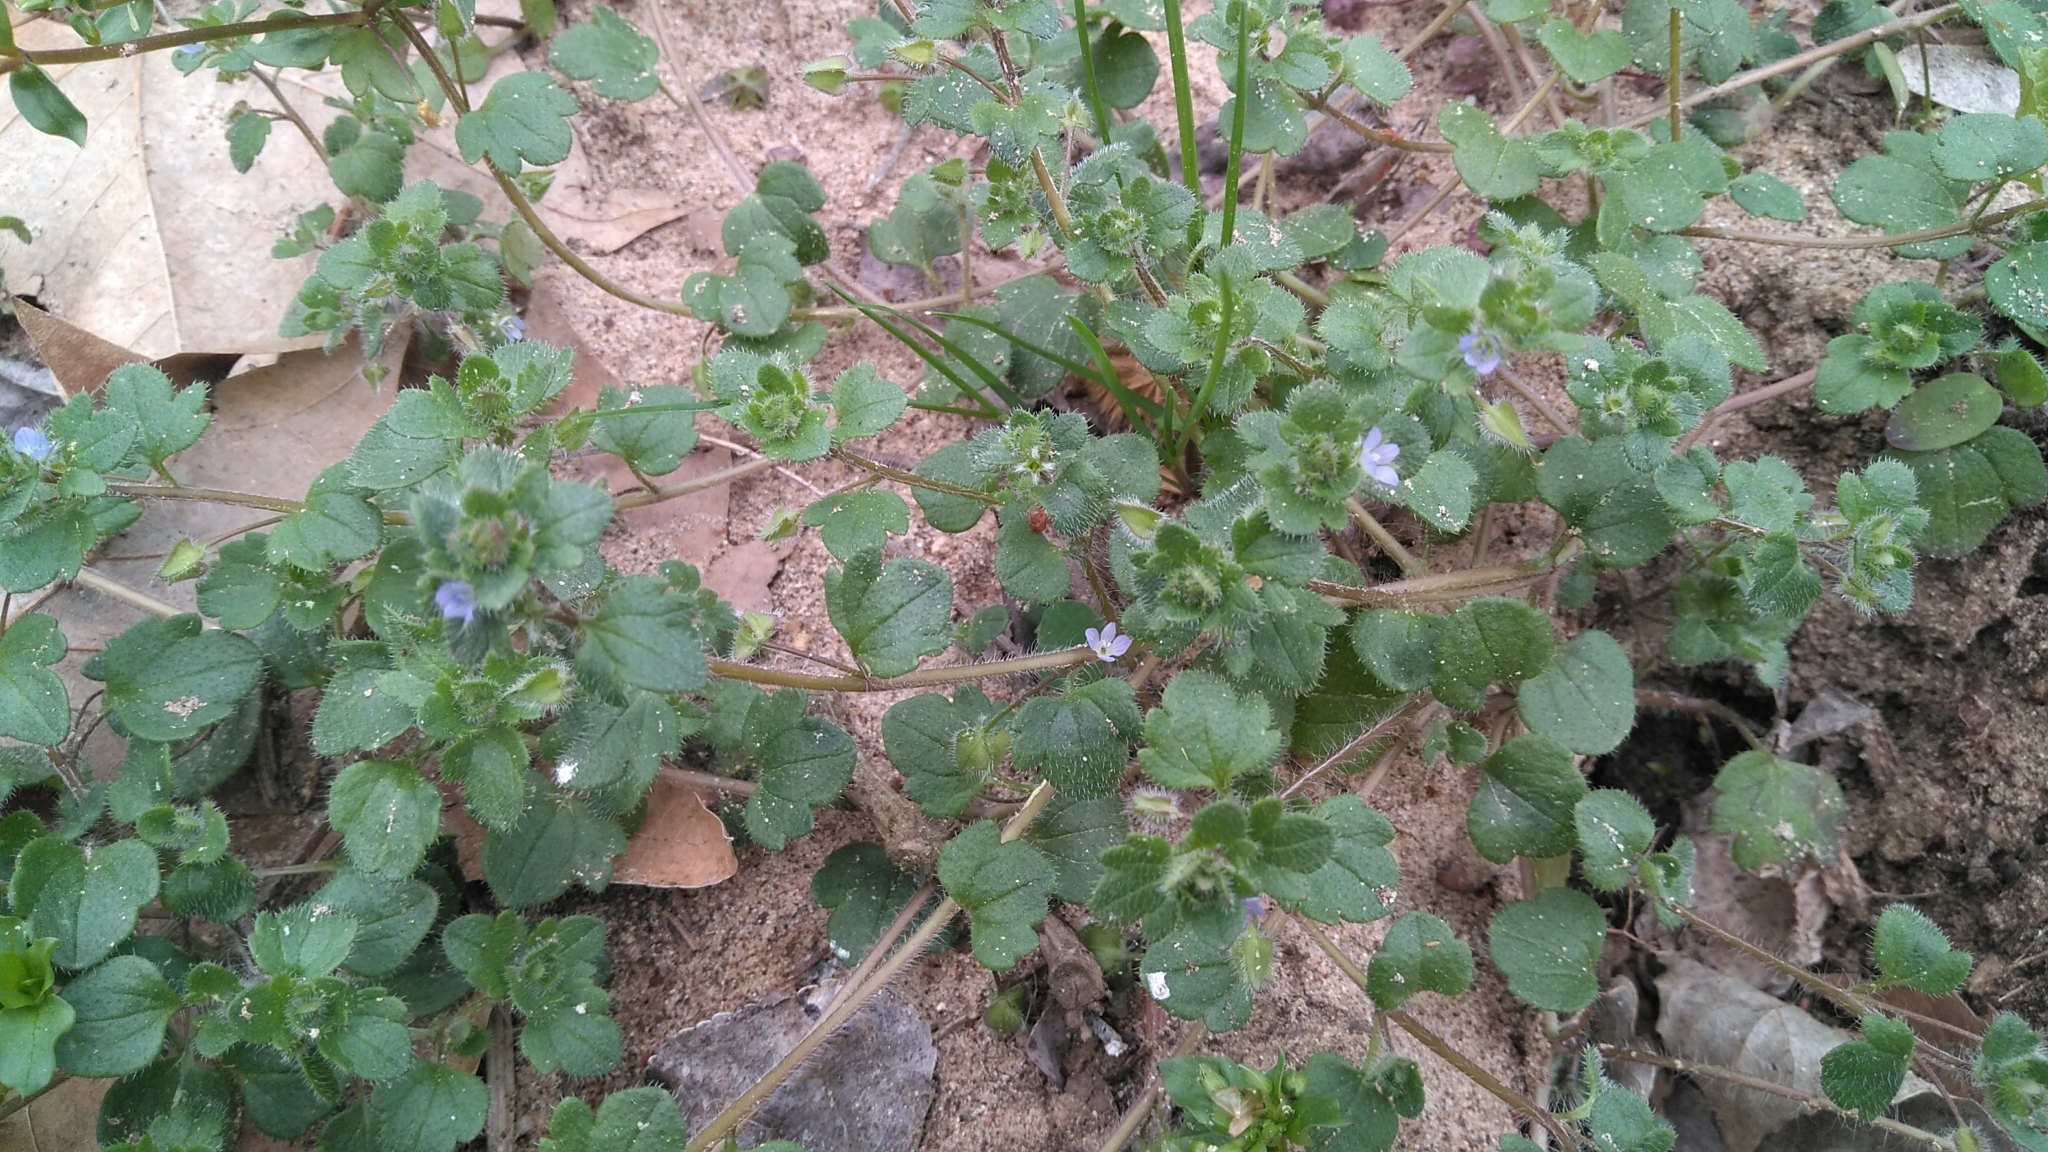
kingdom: Plantae
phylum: Tracheophyta
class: Magnoliopsida
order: Lamiales
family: Plantaginaceae
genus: Veronica
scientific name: Veronica hederifolia
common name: Ivy-leaved speedwell
